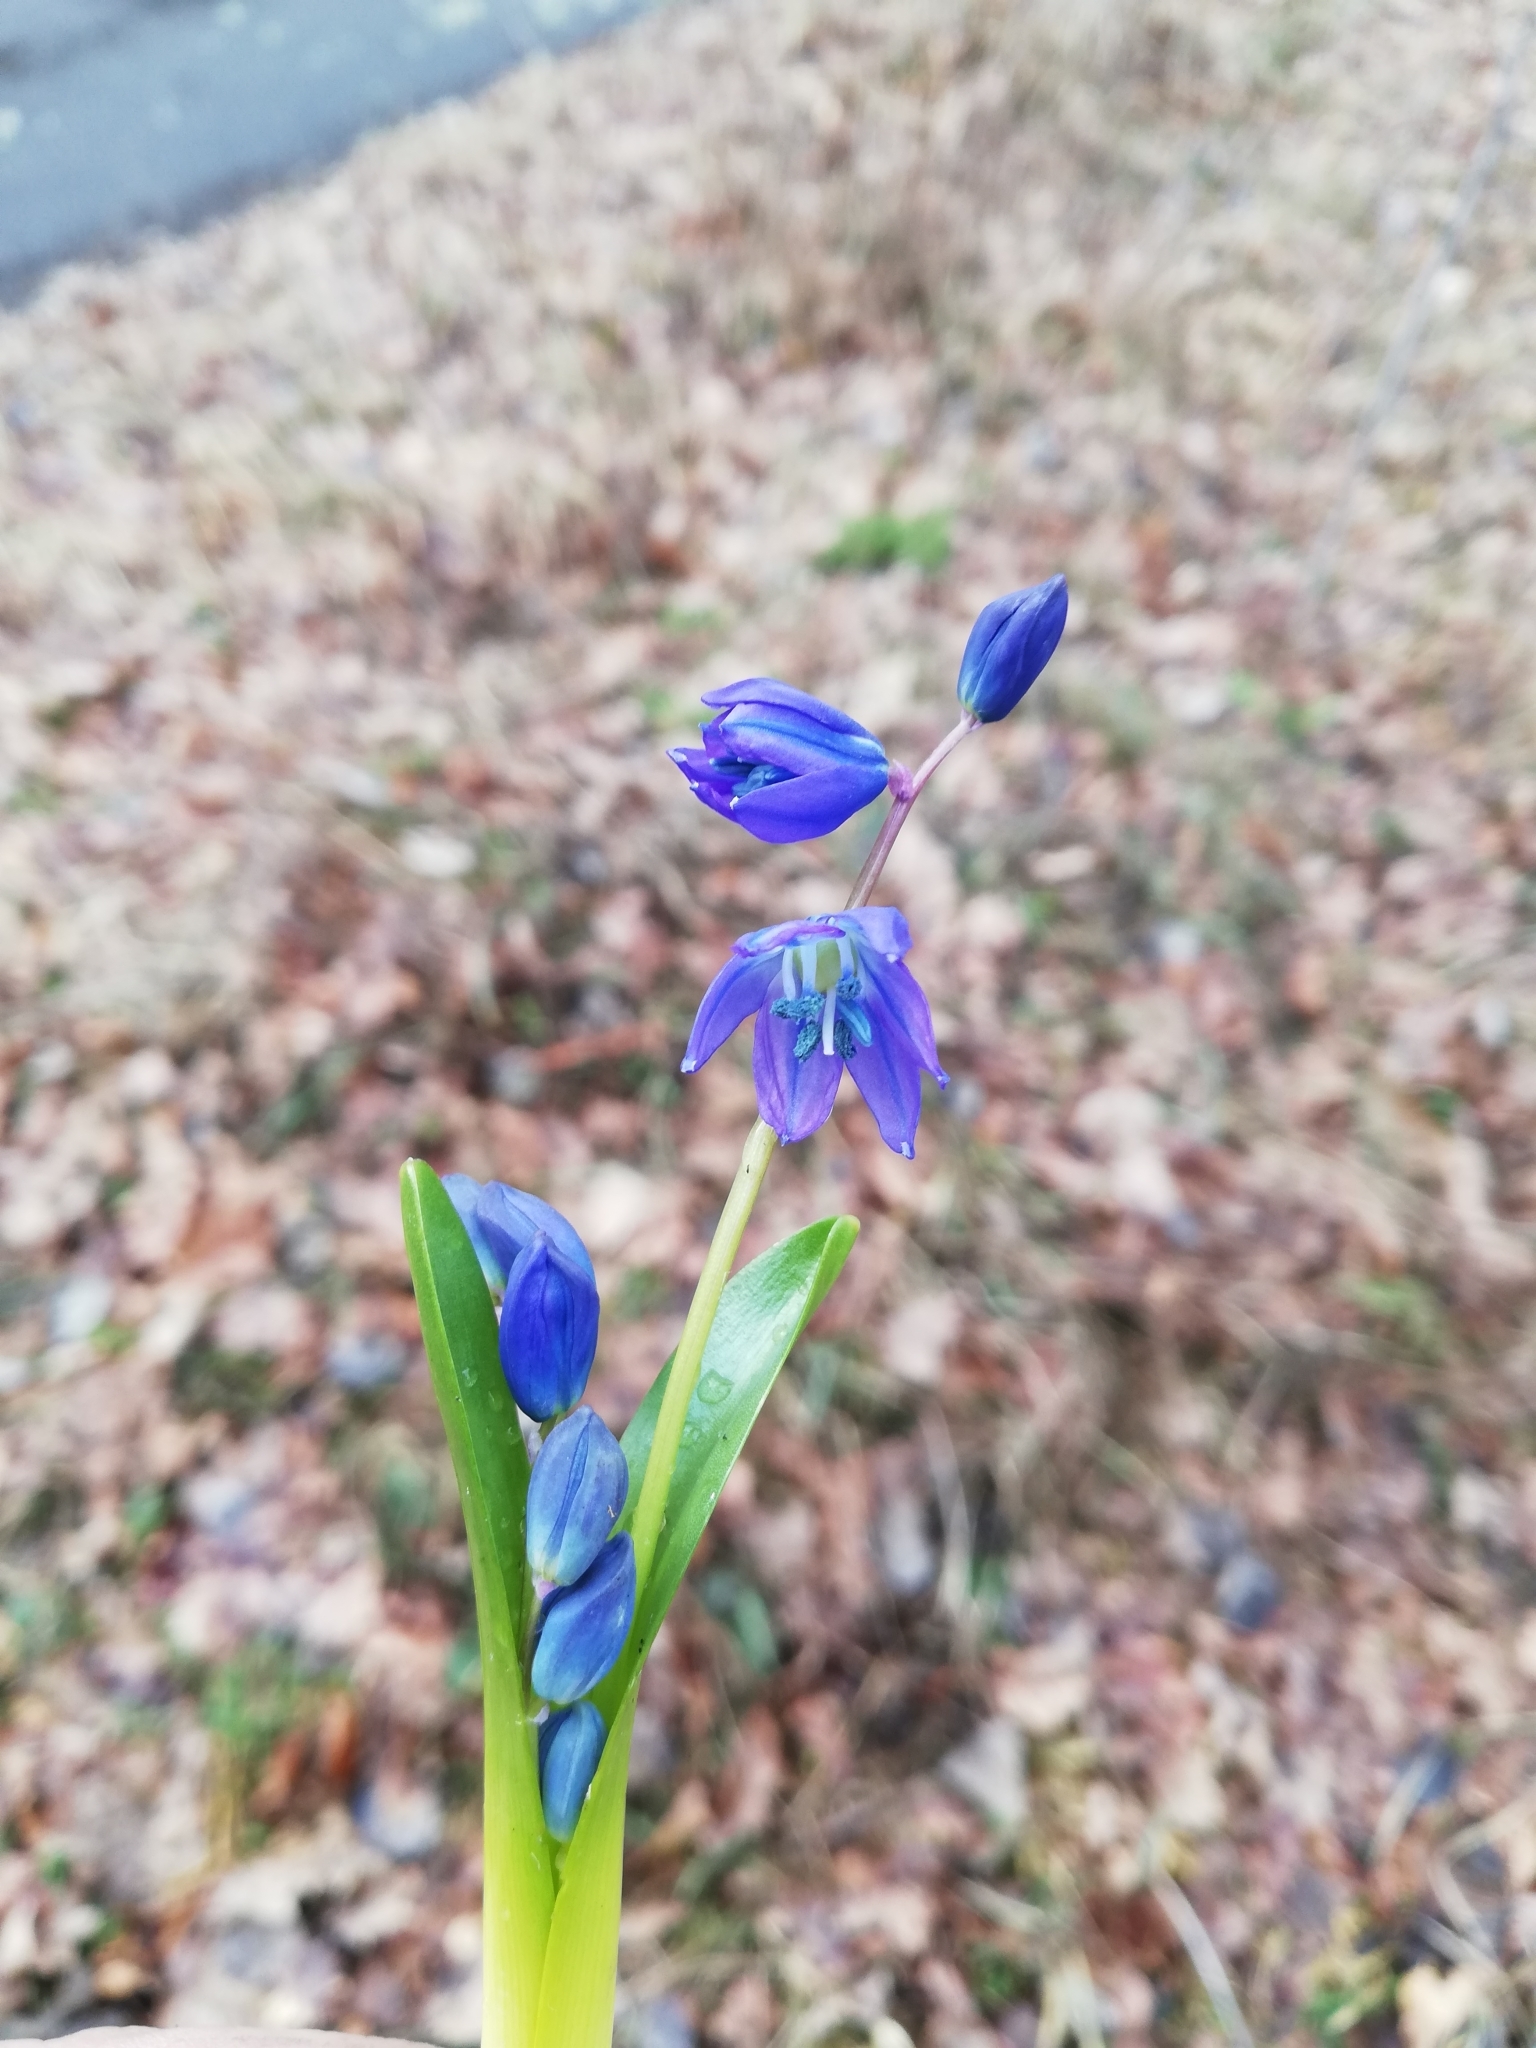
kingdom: Plantae
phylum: Tracheophyta
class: Liliopsida
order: Asparagales
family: Asparagaceae
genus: Scilla
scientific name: Scilla siberica
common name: Siberian squill
